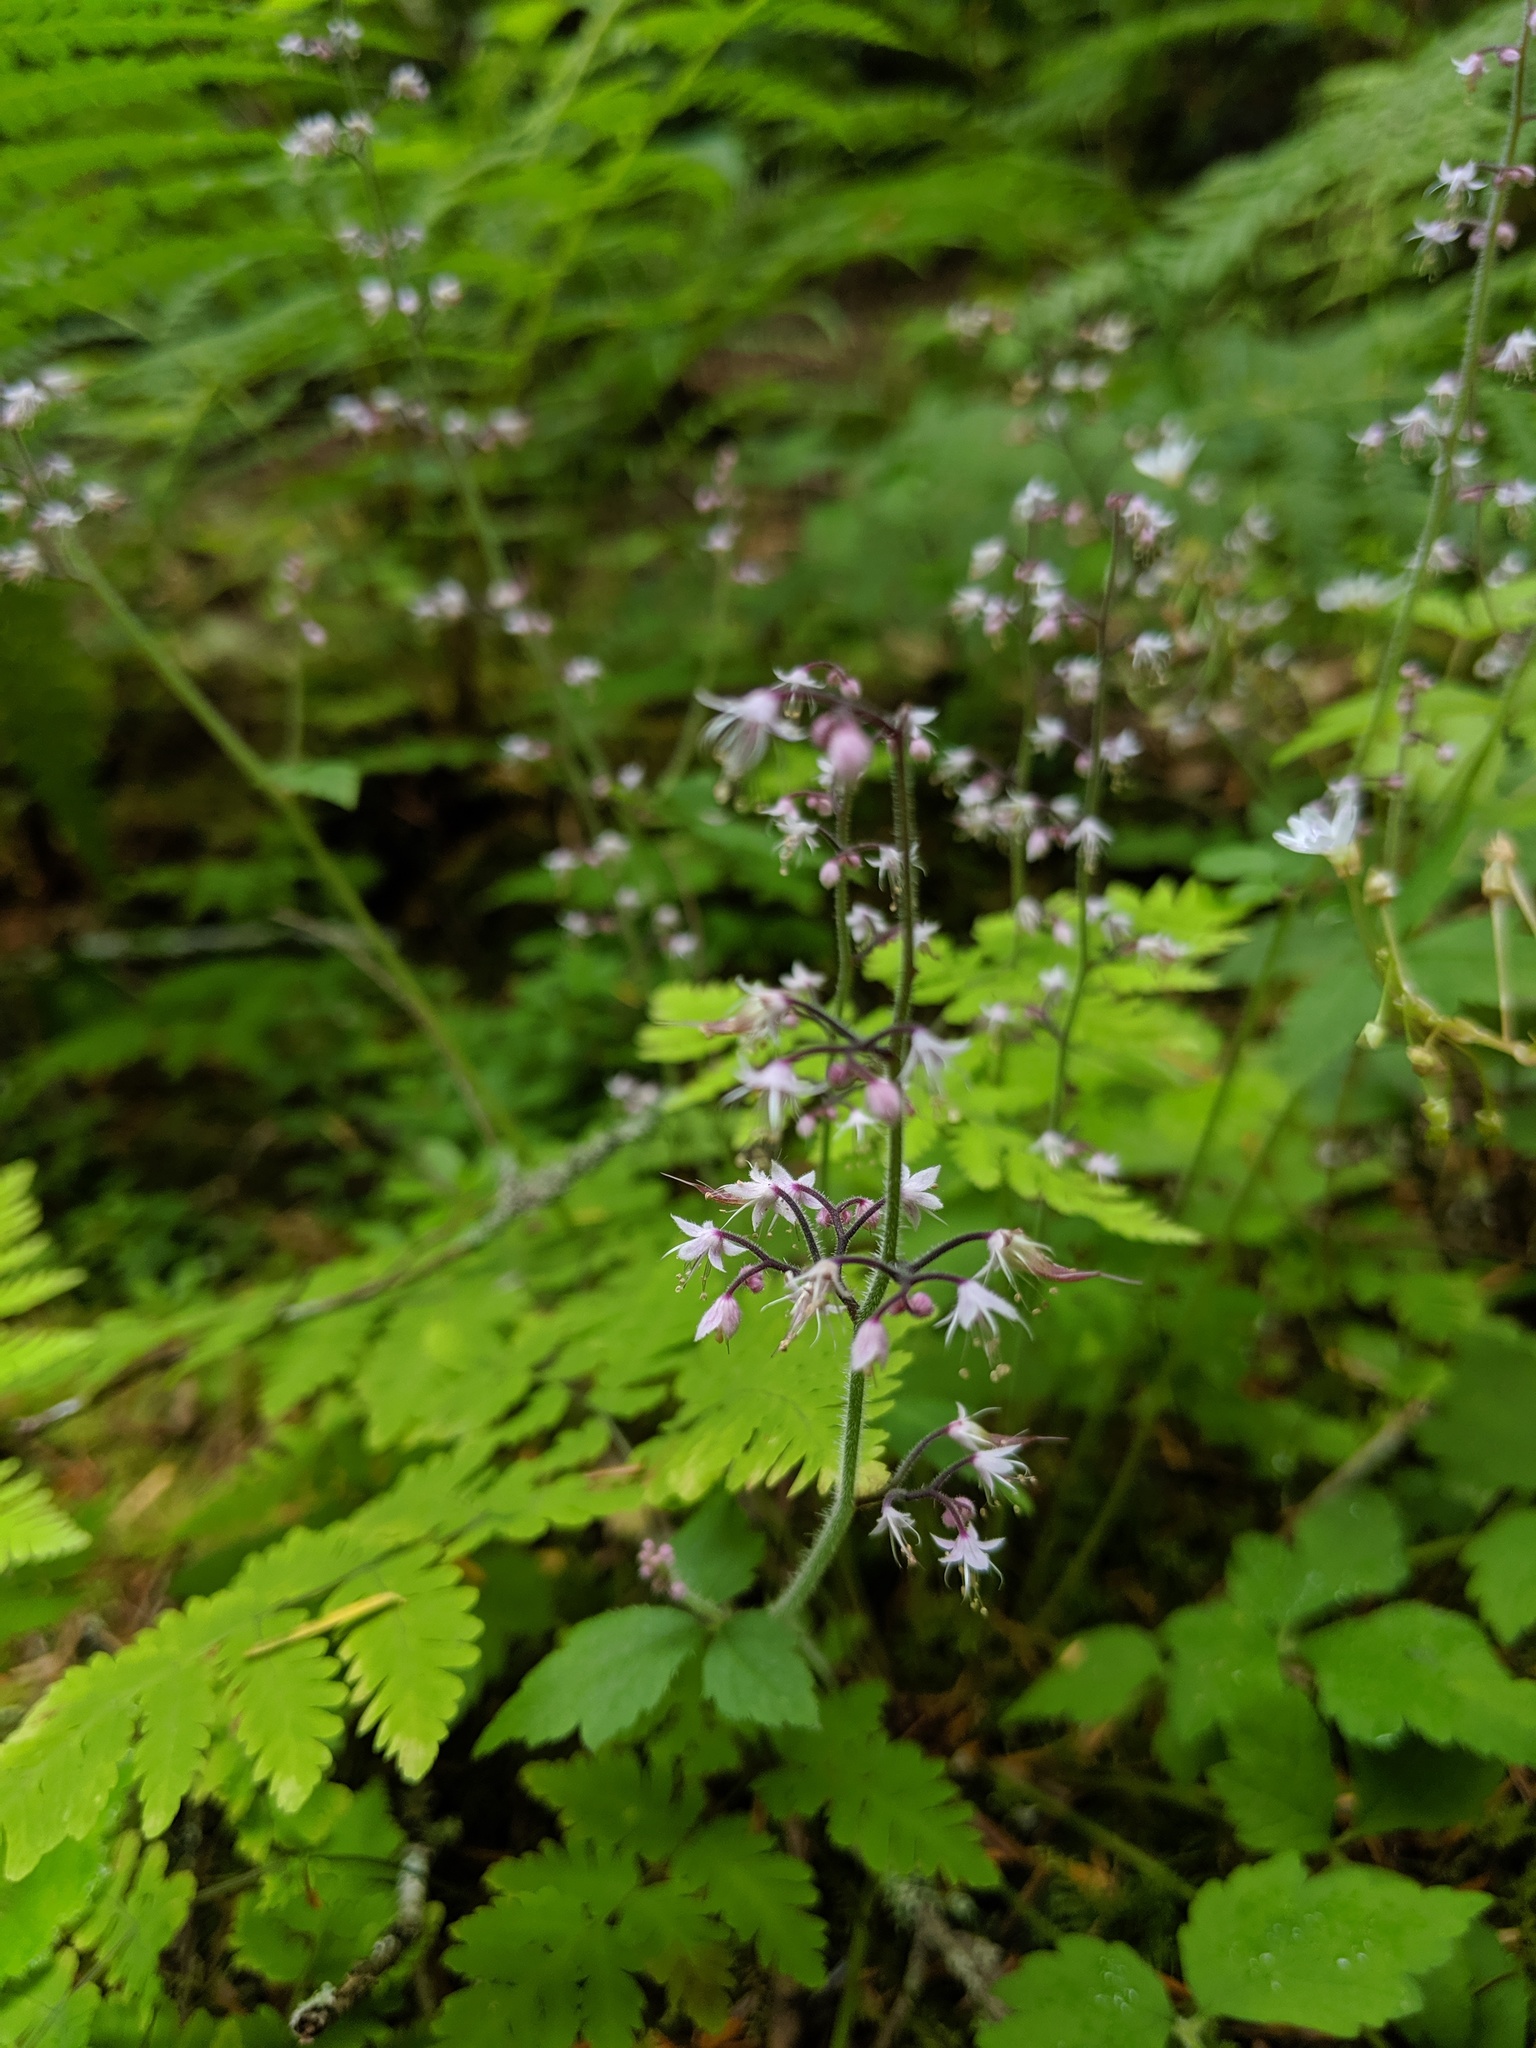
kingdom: Plantae
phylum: Tracheophyta
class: Magnoliopsida
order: Saxifragales
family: Saxifragaceae
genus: Tiarella
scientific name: Tiarella trifoliata
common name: Sugar-scoop
